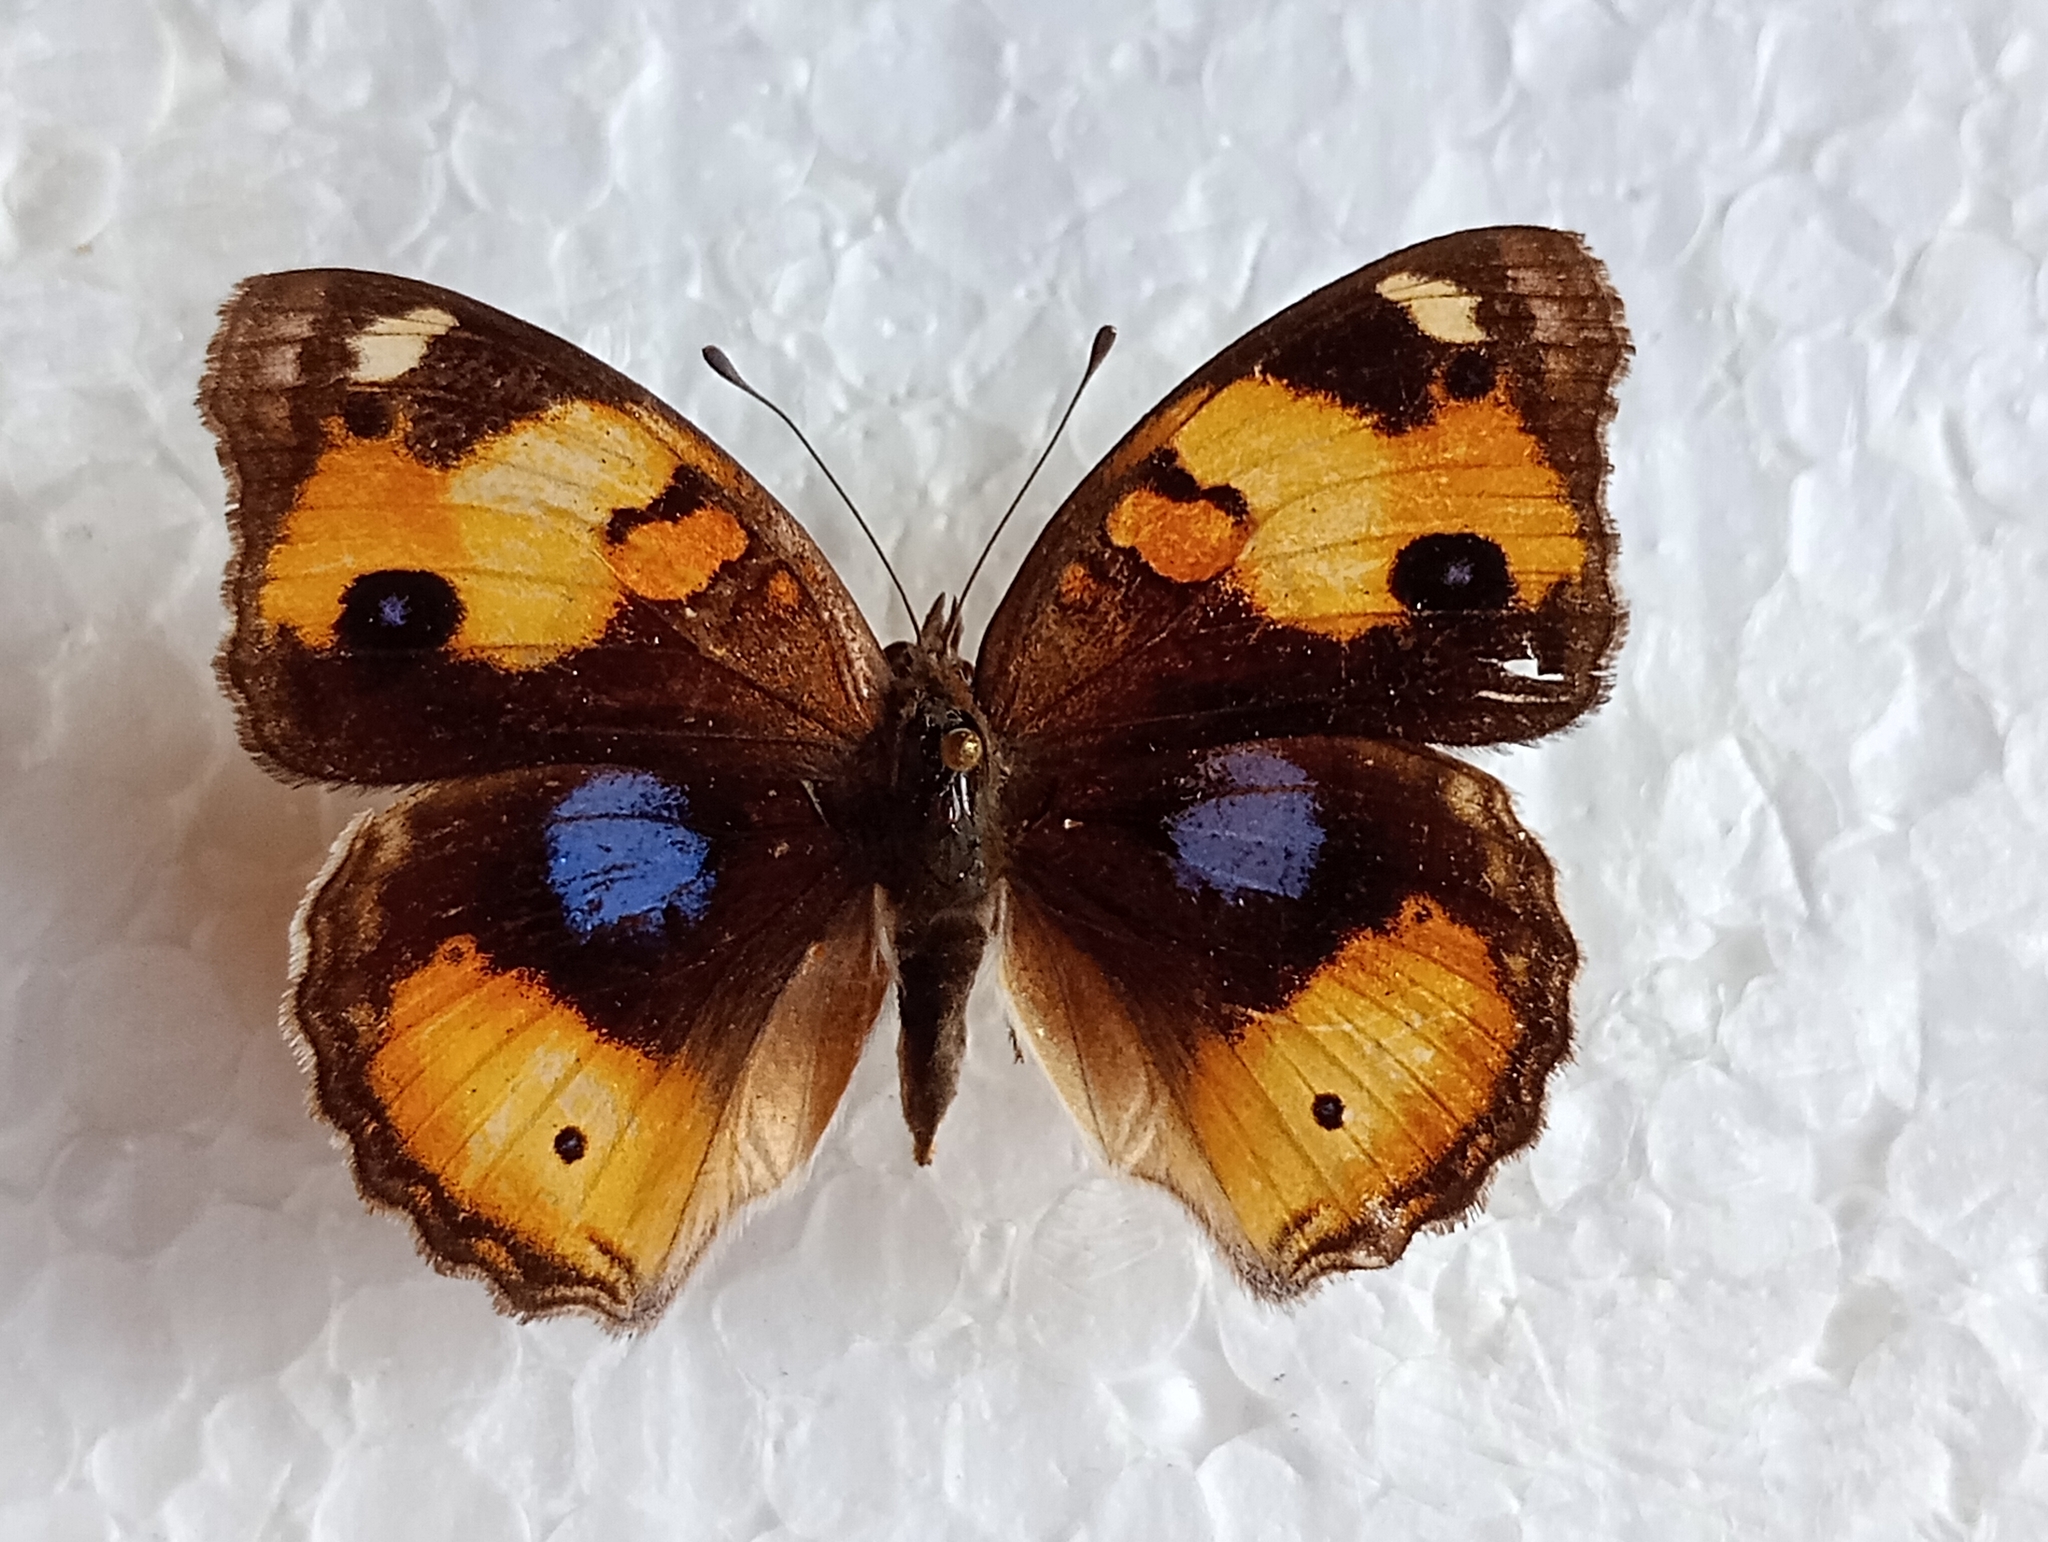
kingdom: Animalia
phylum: Arthropoda
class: Insecta
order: Lepidoptera
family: Nymphalidae
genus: Junonia
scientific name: Junonia hierta
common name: Yellow pansy
